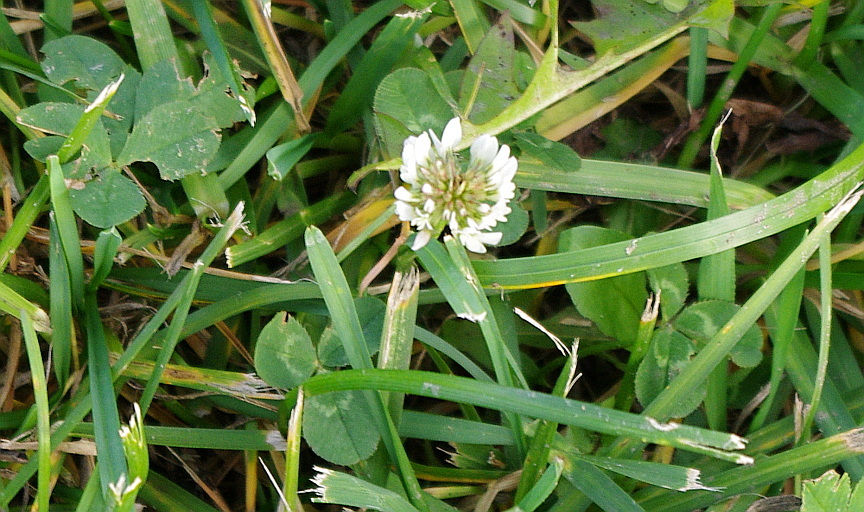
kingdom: Plantae
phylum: Tracheophyta
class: Magnoliopsida
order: Fabales
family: Fabaceae
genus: Trifolium
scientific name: Trifolium repens
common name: White clover
